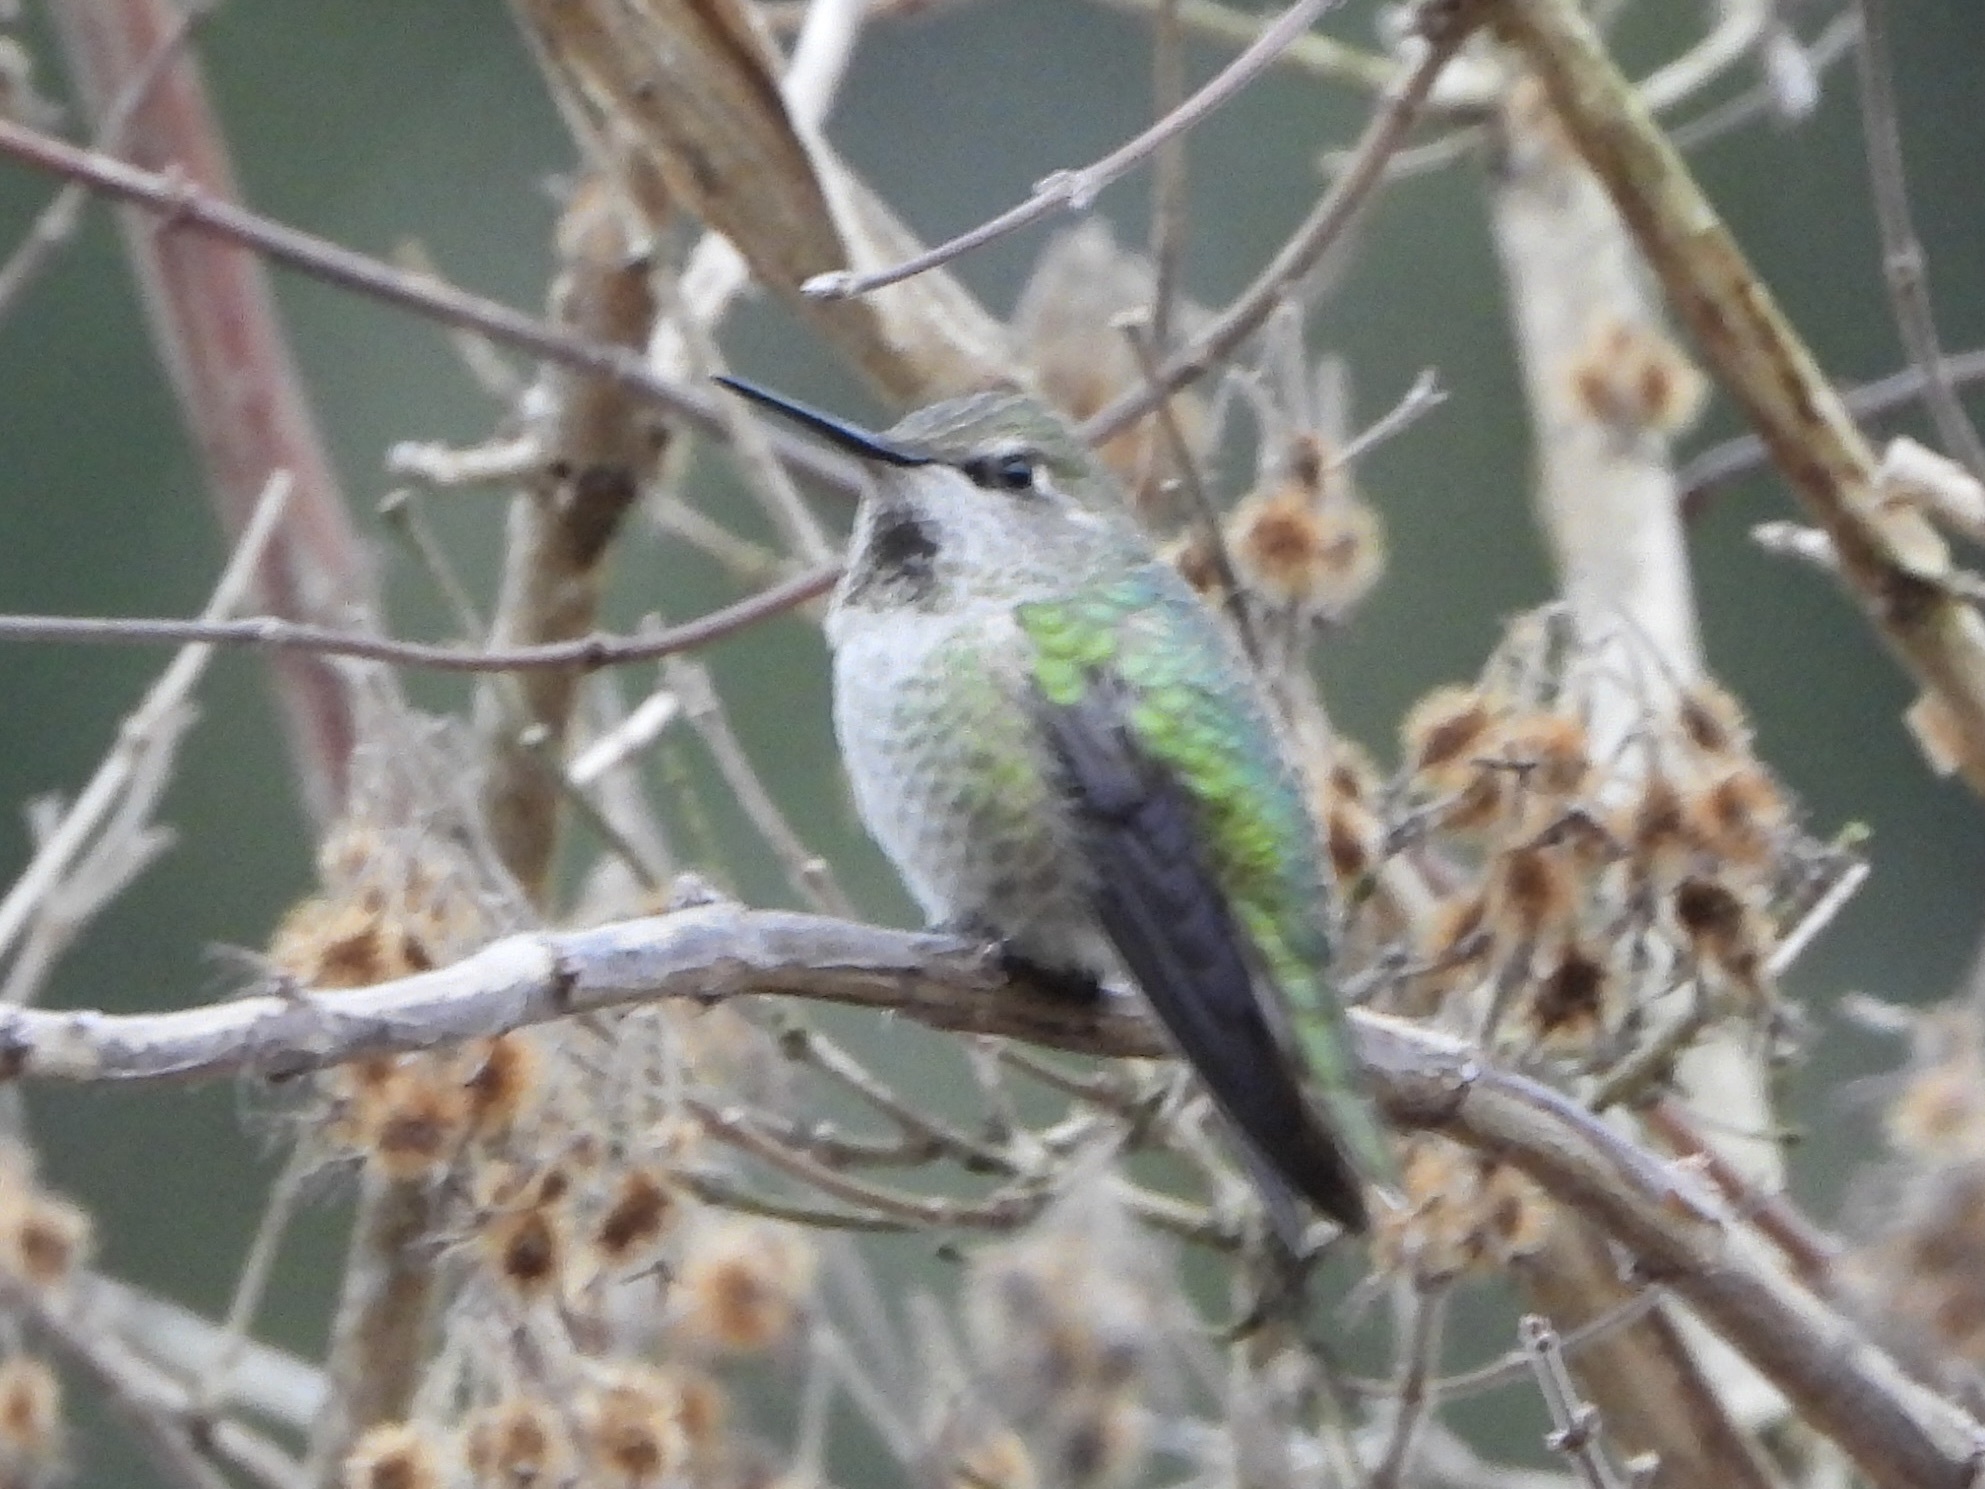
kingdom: Animalia
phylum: Chordata
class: Aves
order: Apodiformes
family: Trochilidae
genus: Calypte
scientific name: Calypte anna
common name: Anna's hummingbird
